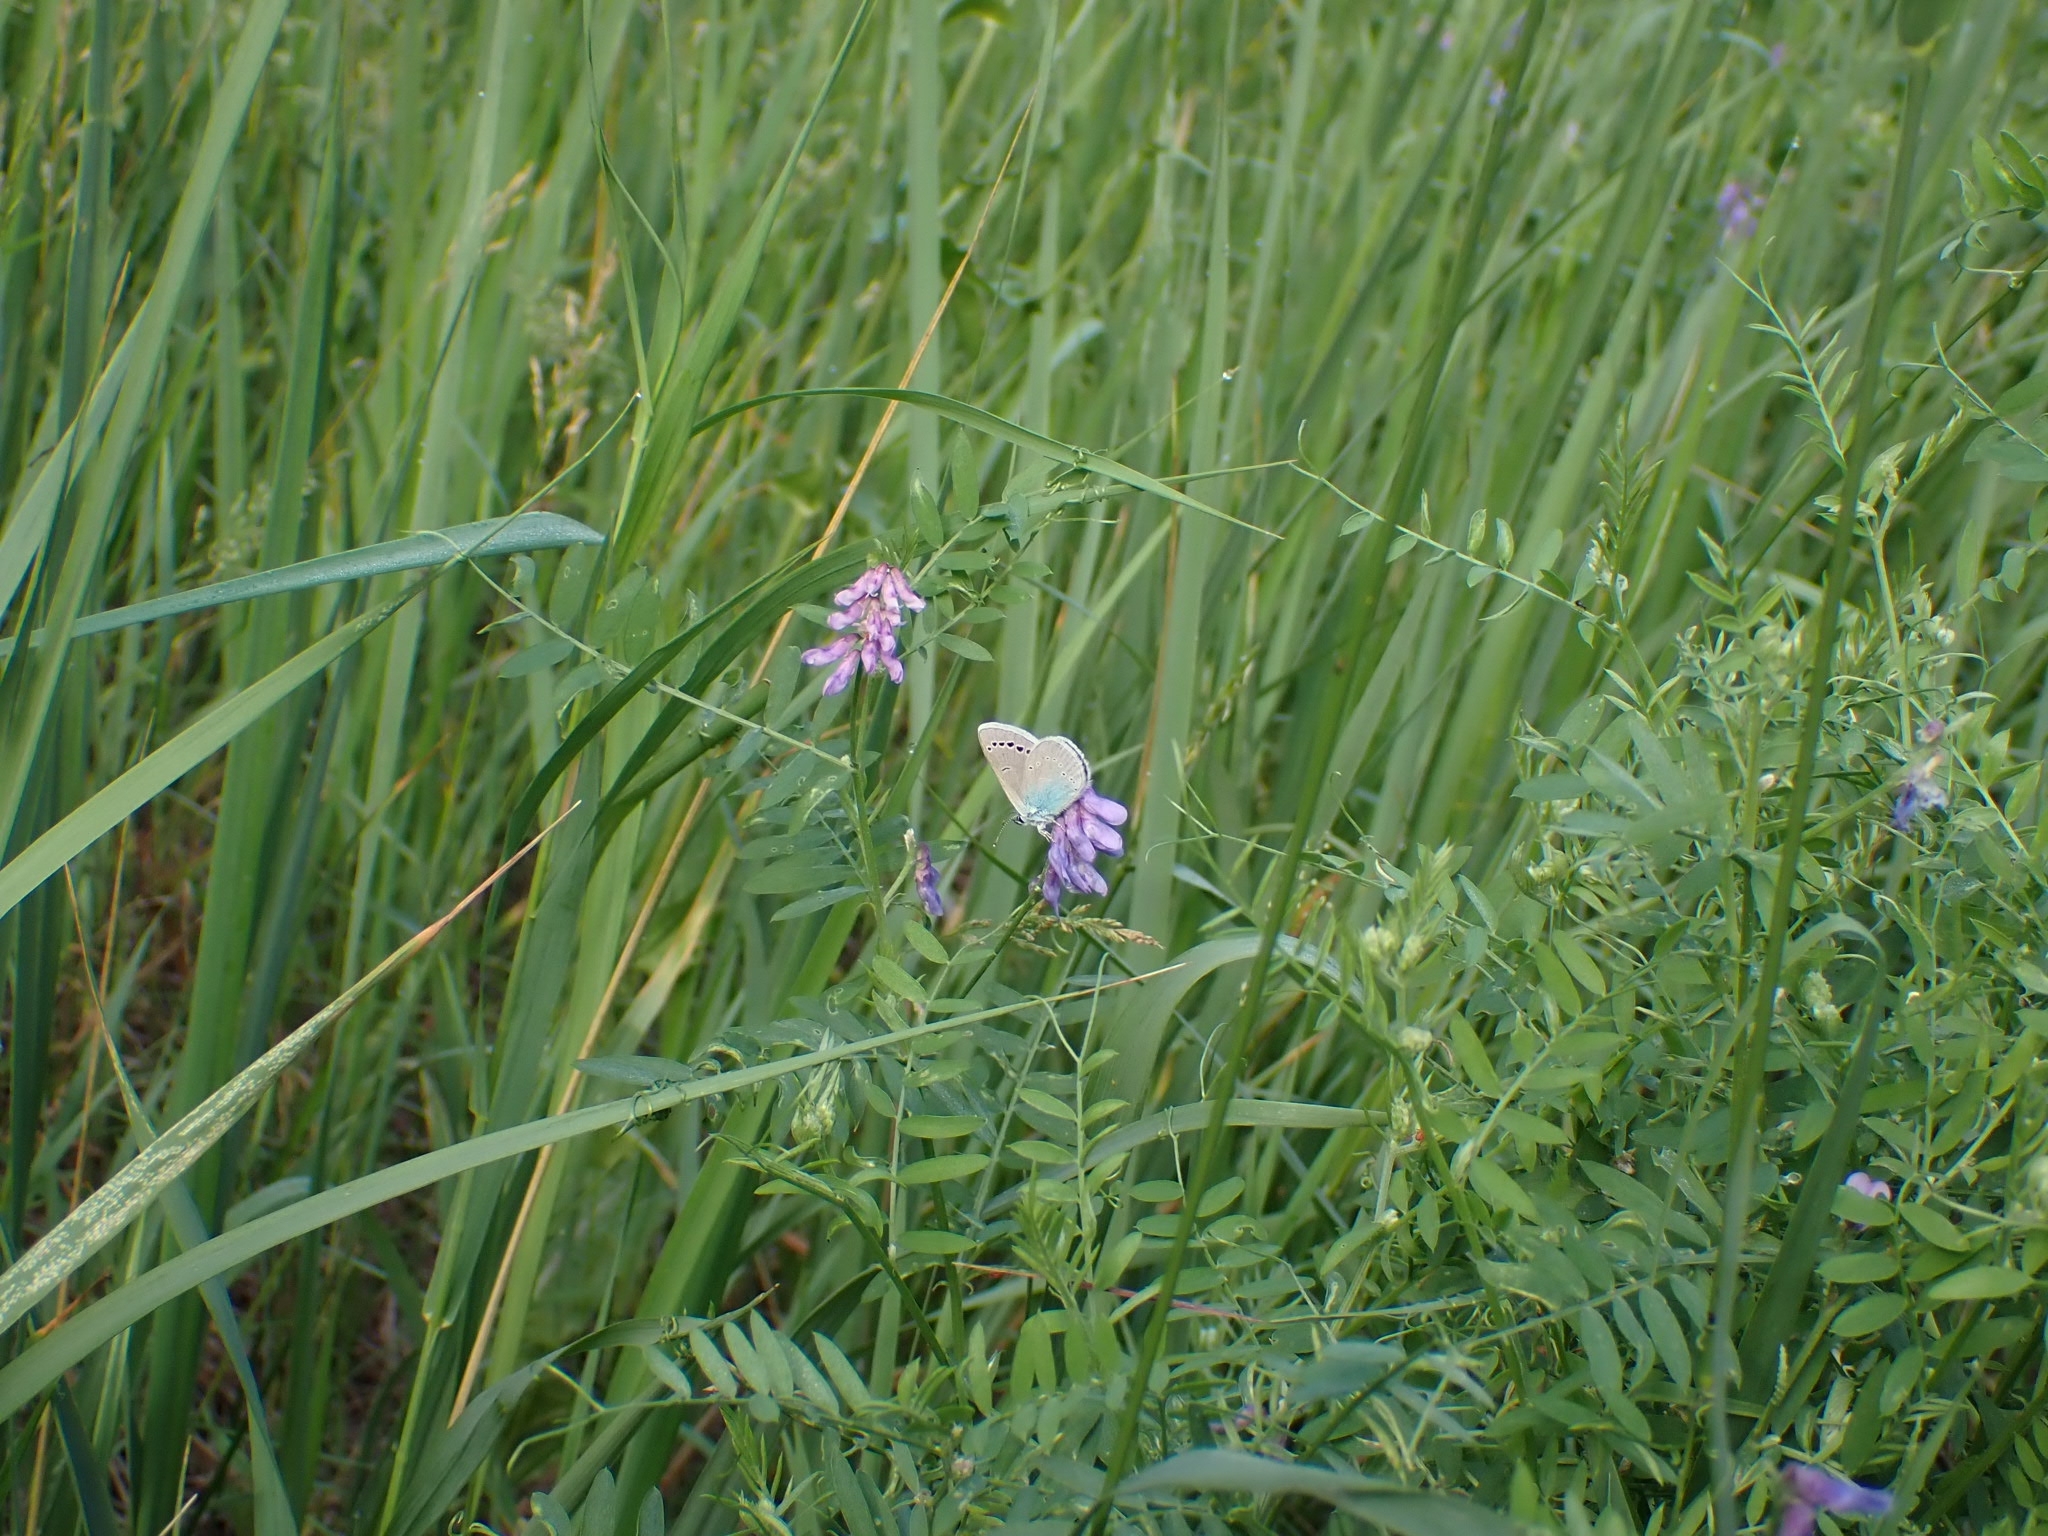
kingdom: Animalia
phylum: Arthropoda
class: Insecta
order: Lepidoptera
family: Lycaenidae
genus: Glaucopsyche
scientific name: Glaucopsyche alexis
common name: Green-underside blue
